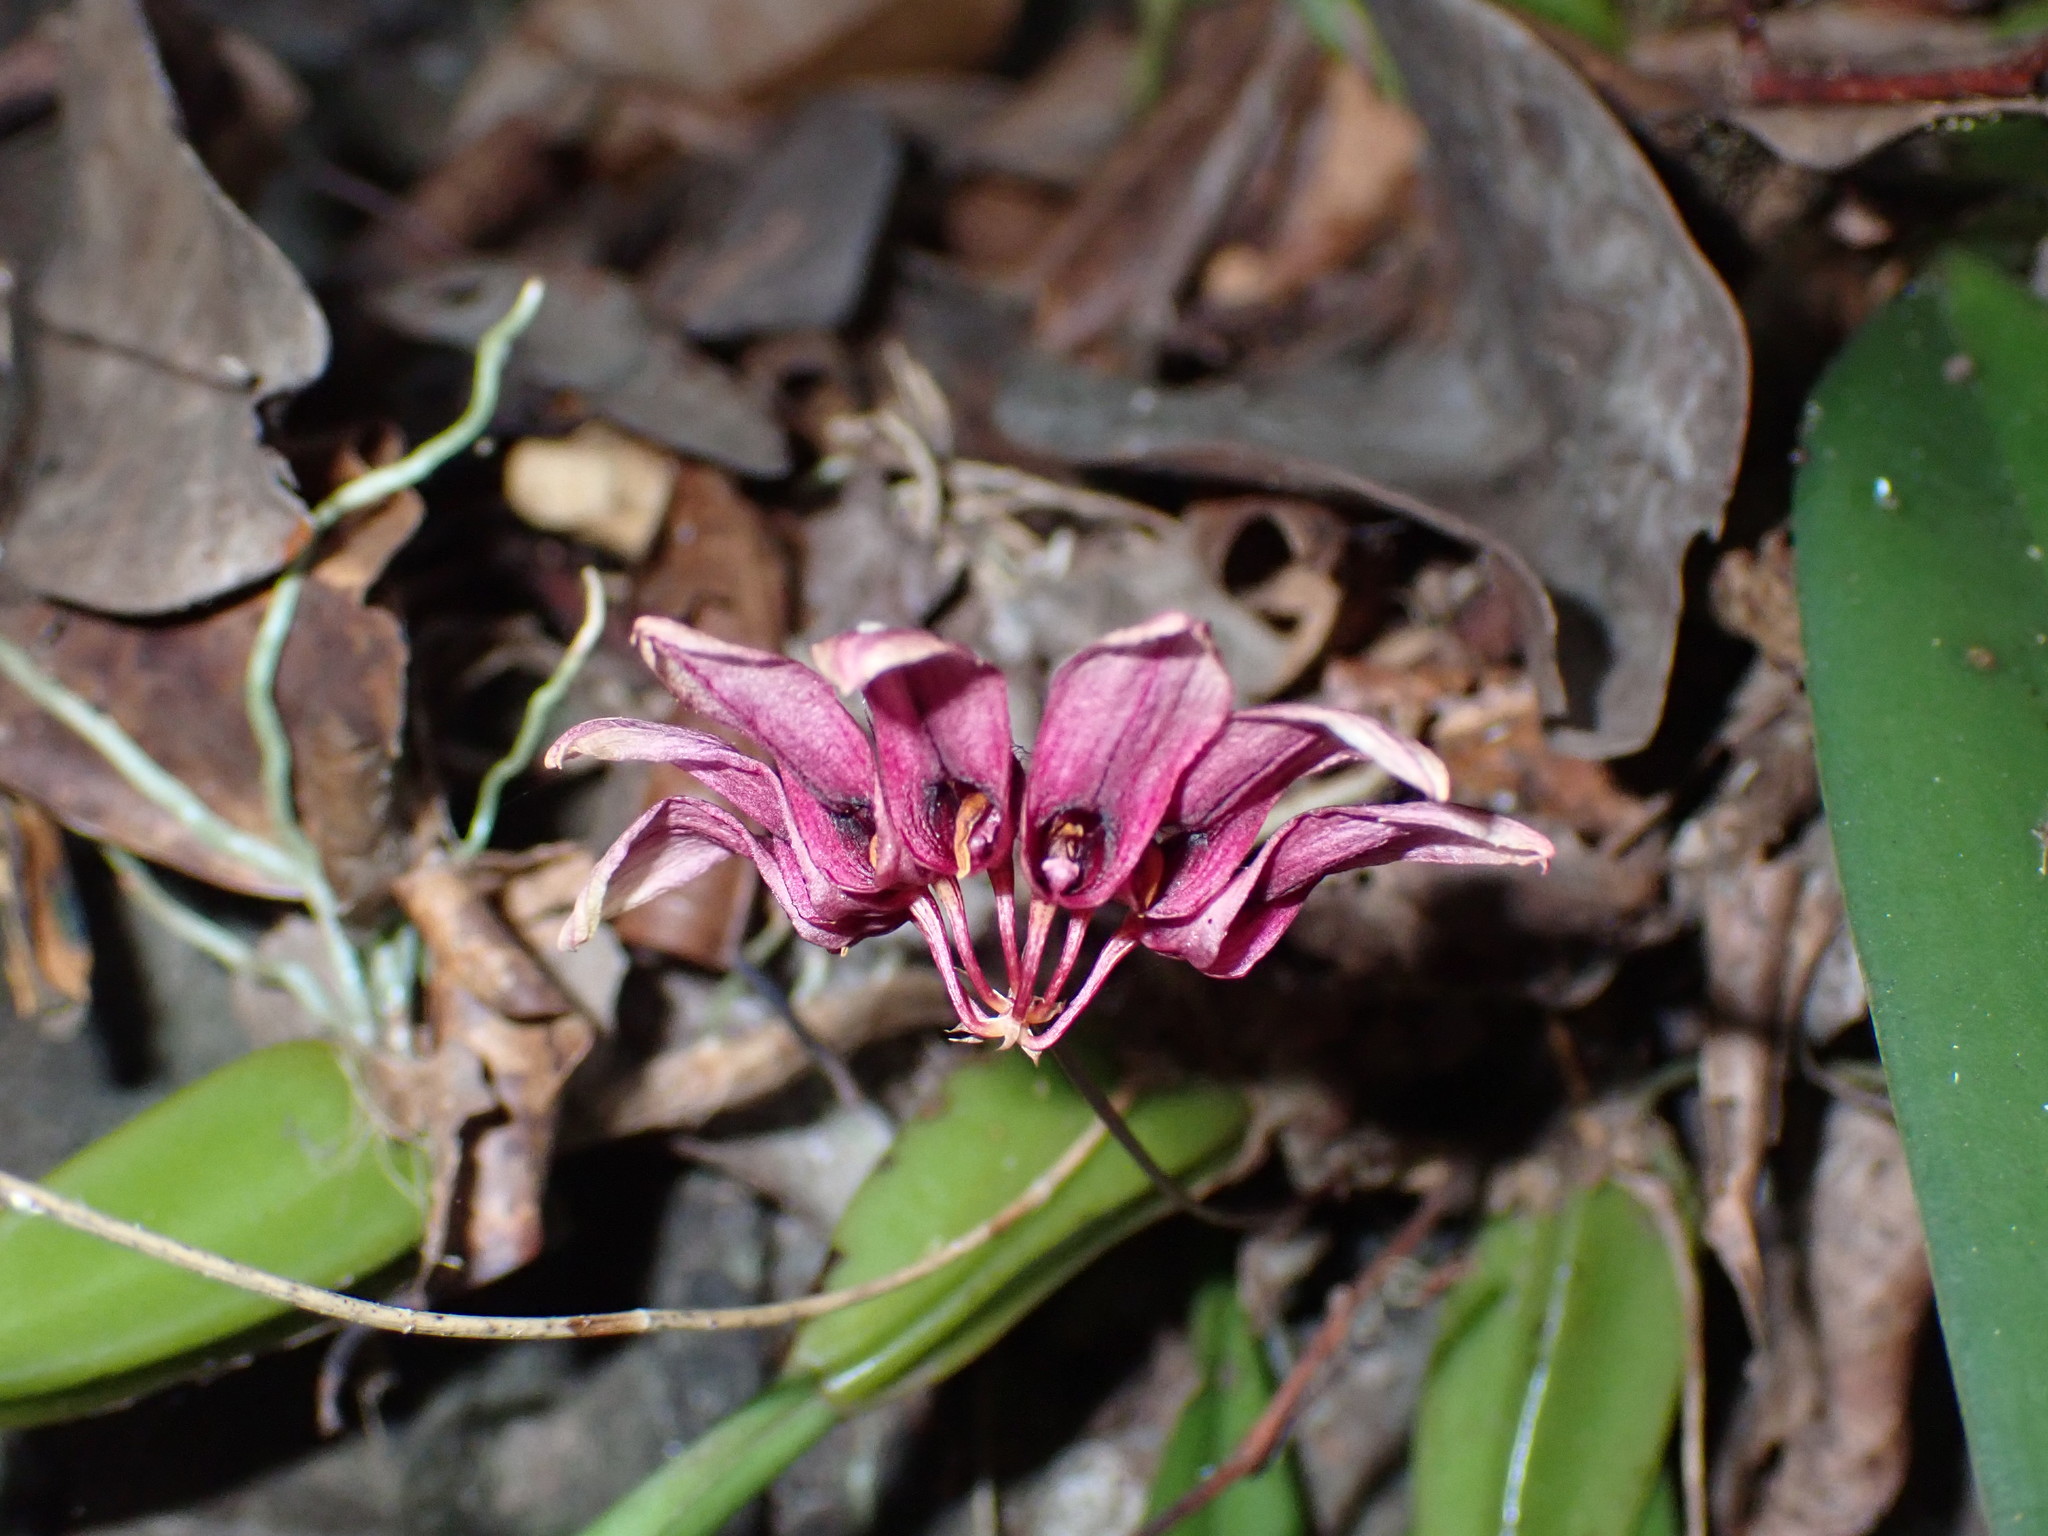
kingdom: Plantae
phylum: Tracheophyta
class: Liliopsida
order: Asparagales
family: Orchidaceae
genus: Bulbophyllum
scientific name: Bulbophyllum lepidum
